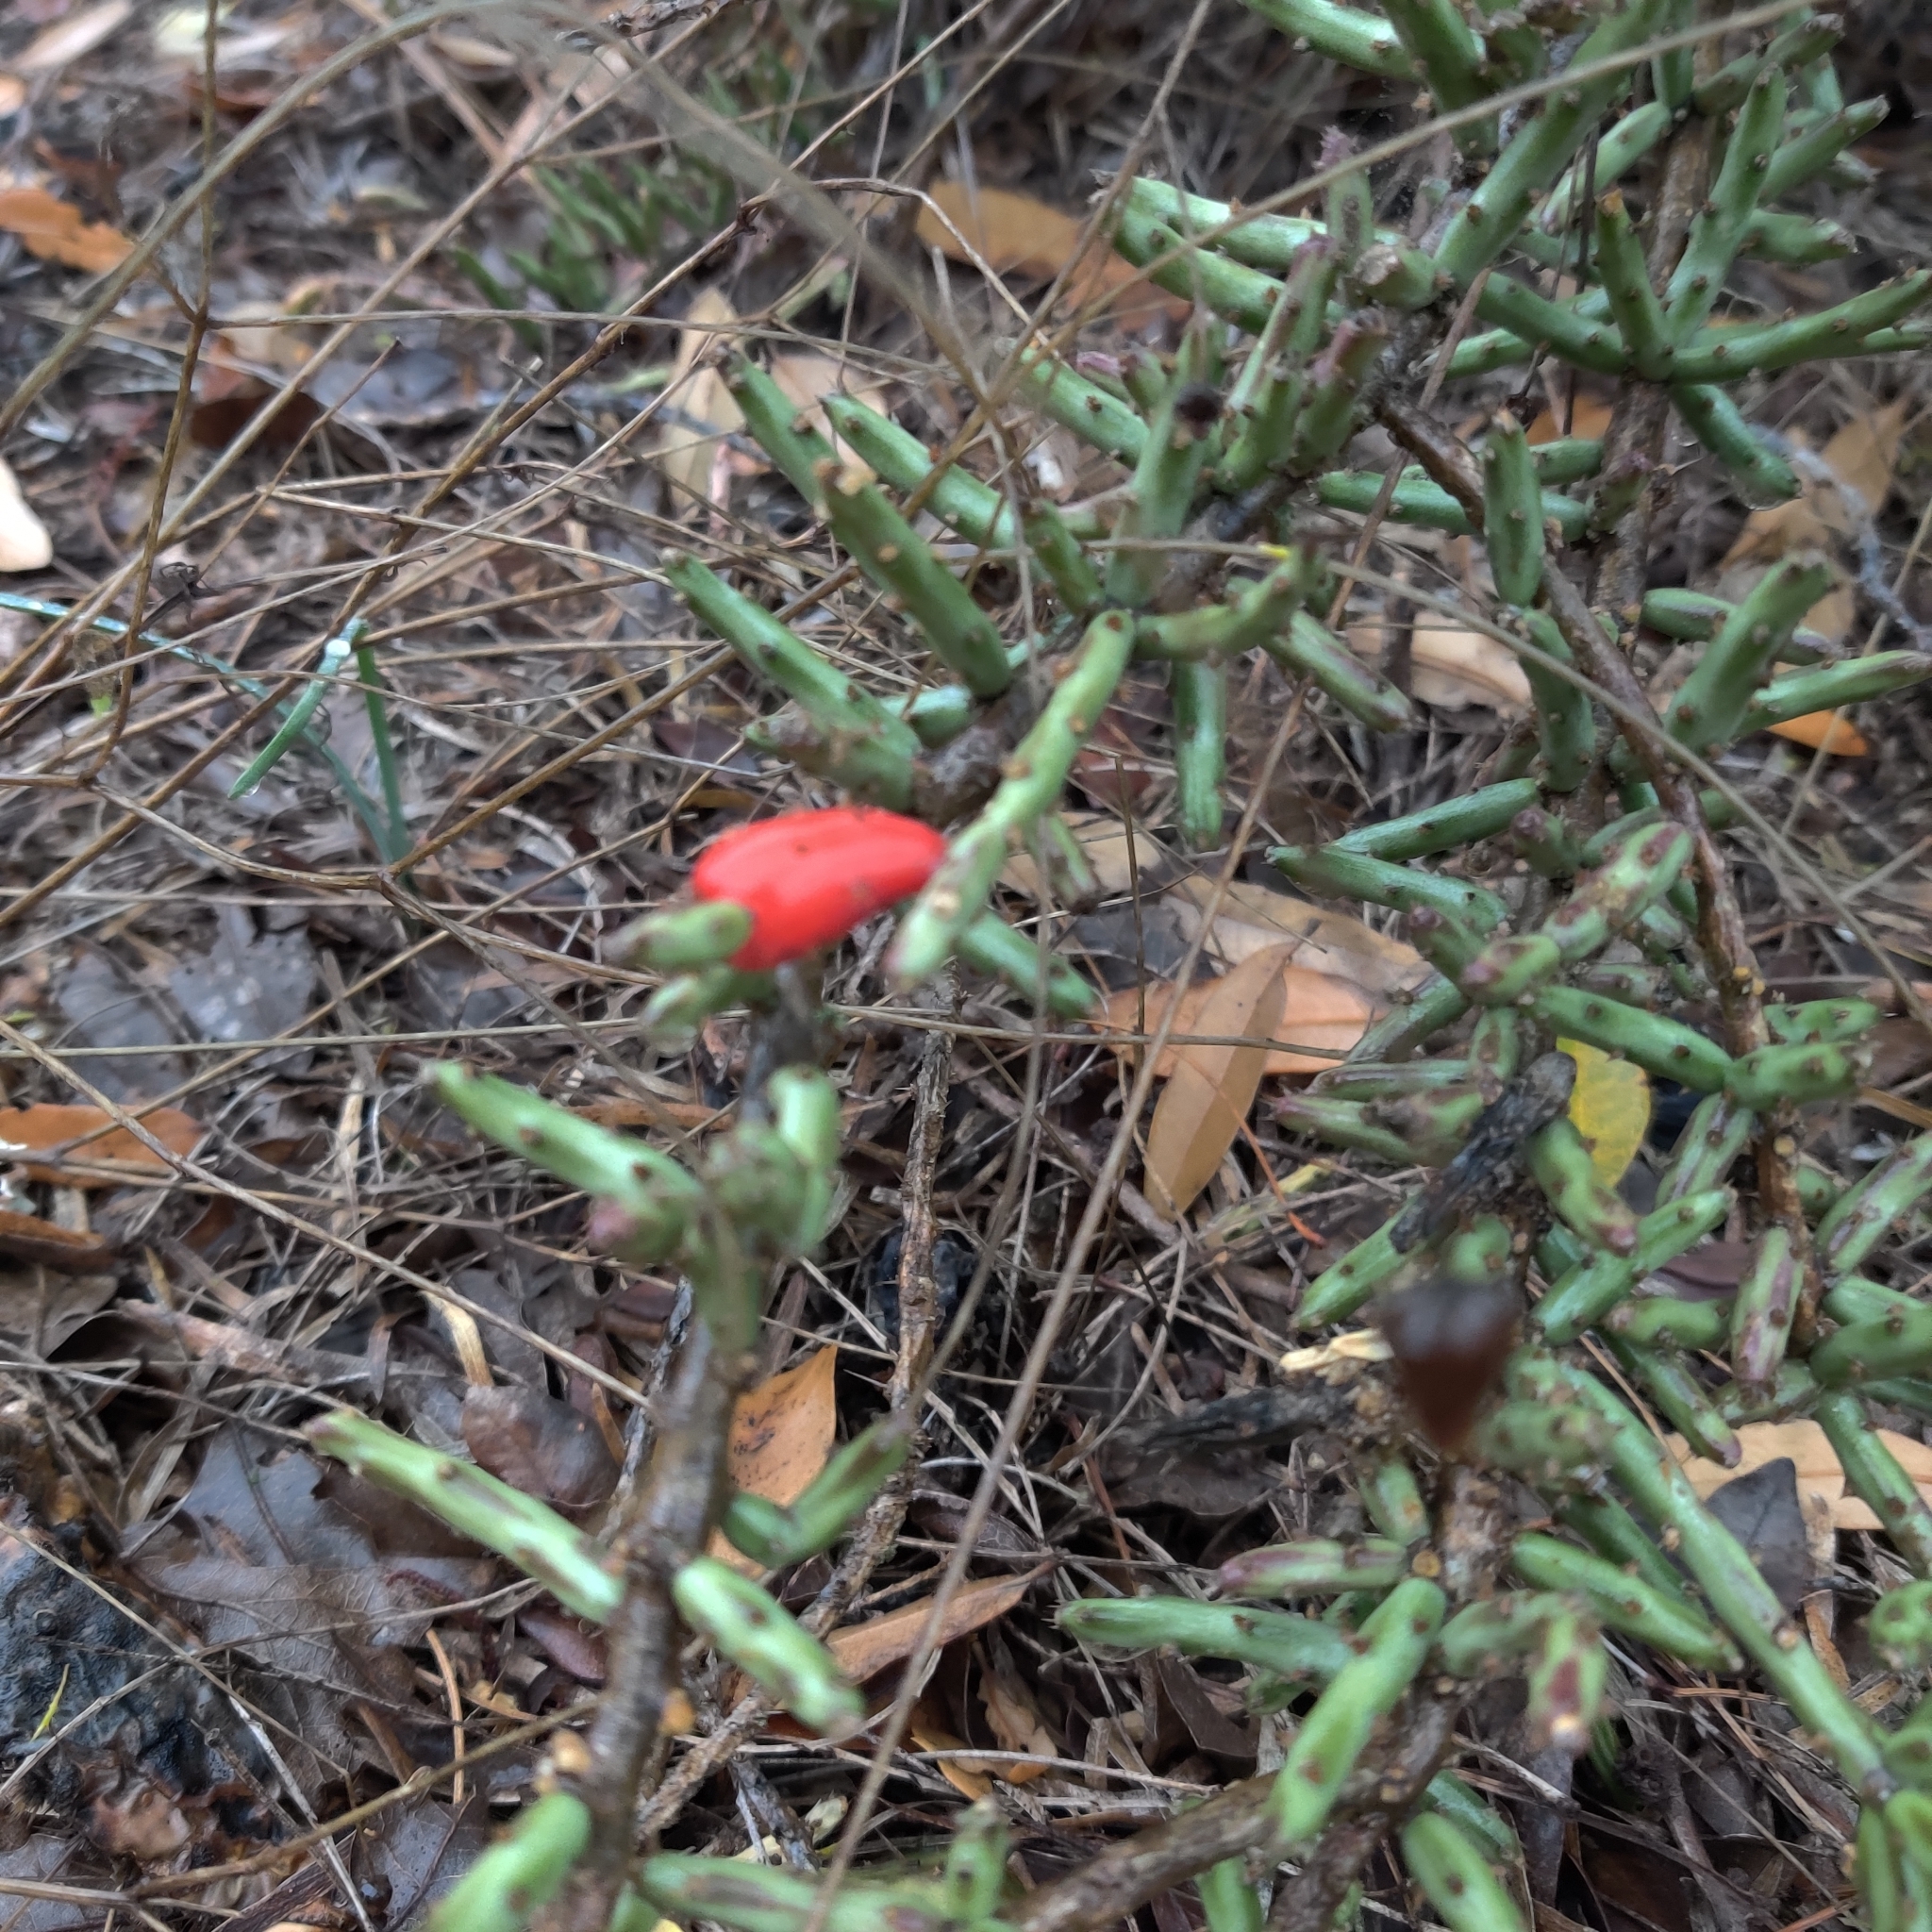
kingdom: Plantae
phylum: Tracheophyta
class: Magnoliopsida
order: Caryophyllales
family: Cactaceae
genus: Cylindropuntia
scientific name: Cylindropuntia leptocaulis
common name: Christmas cactus
